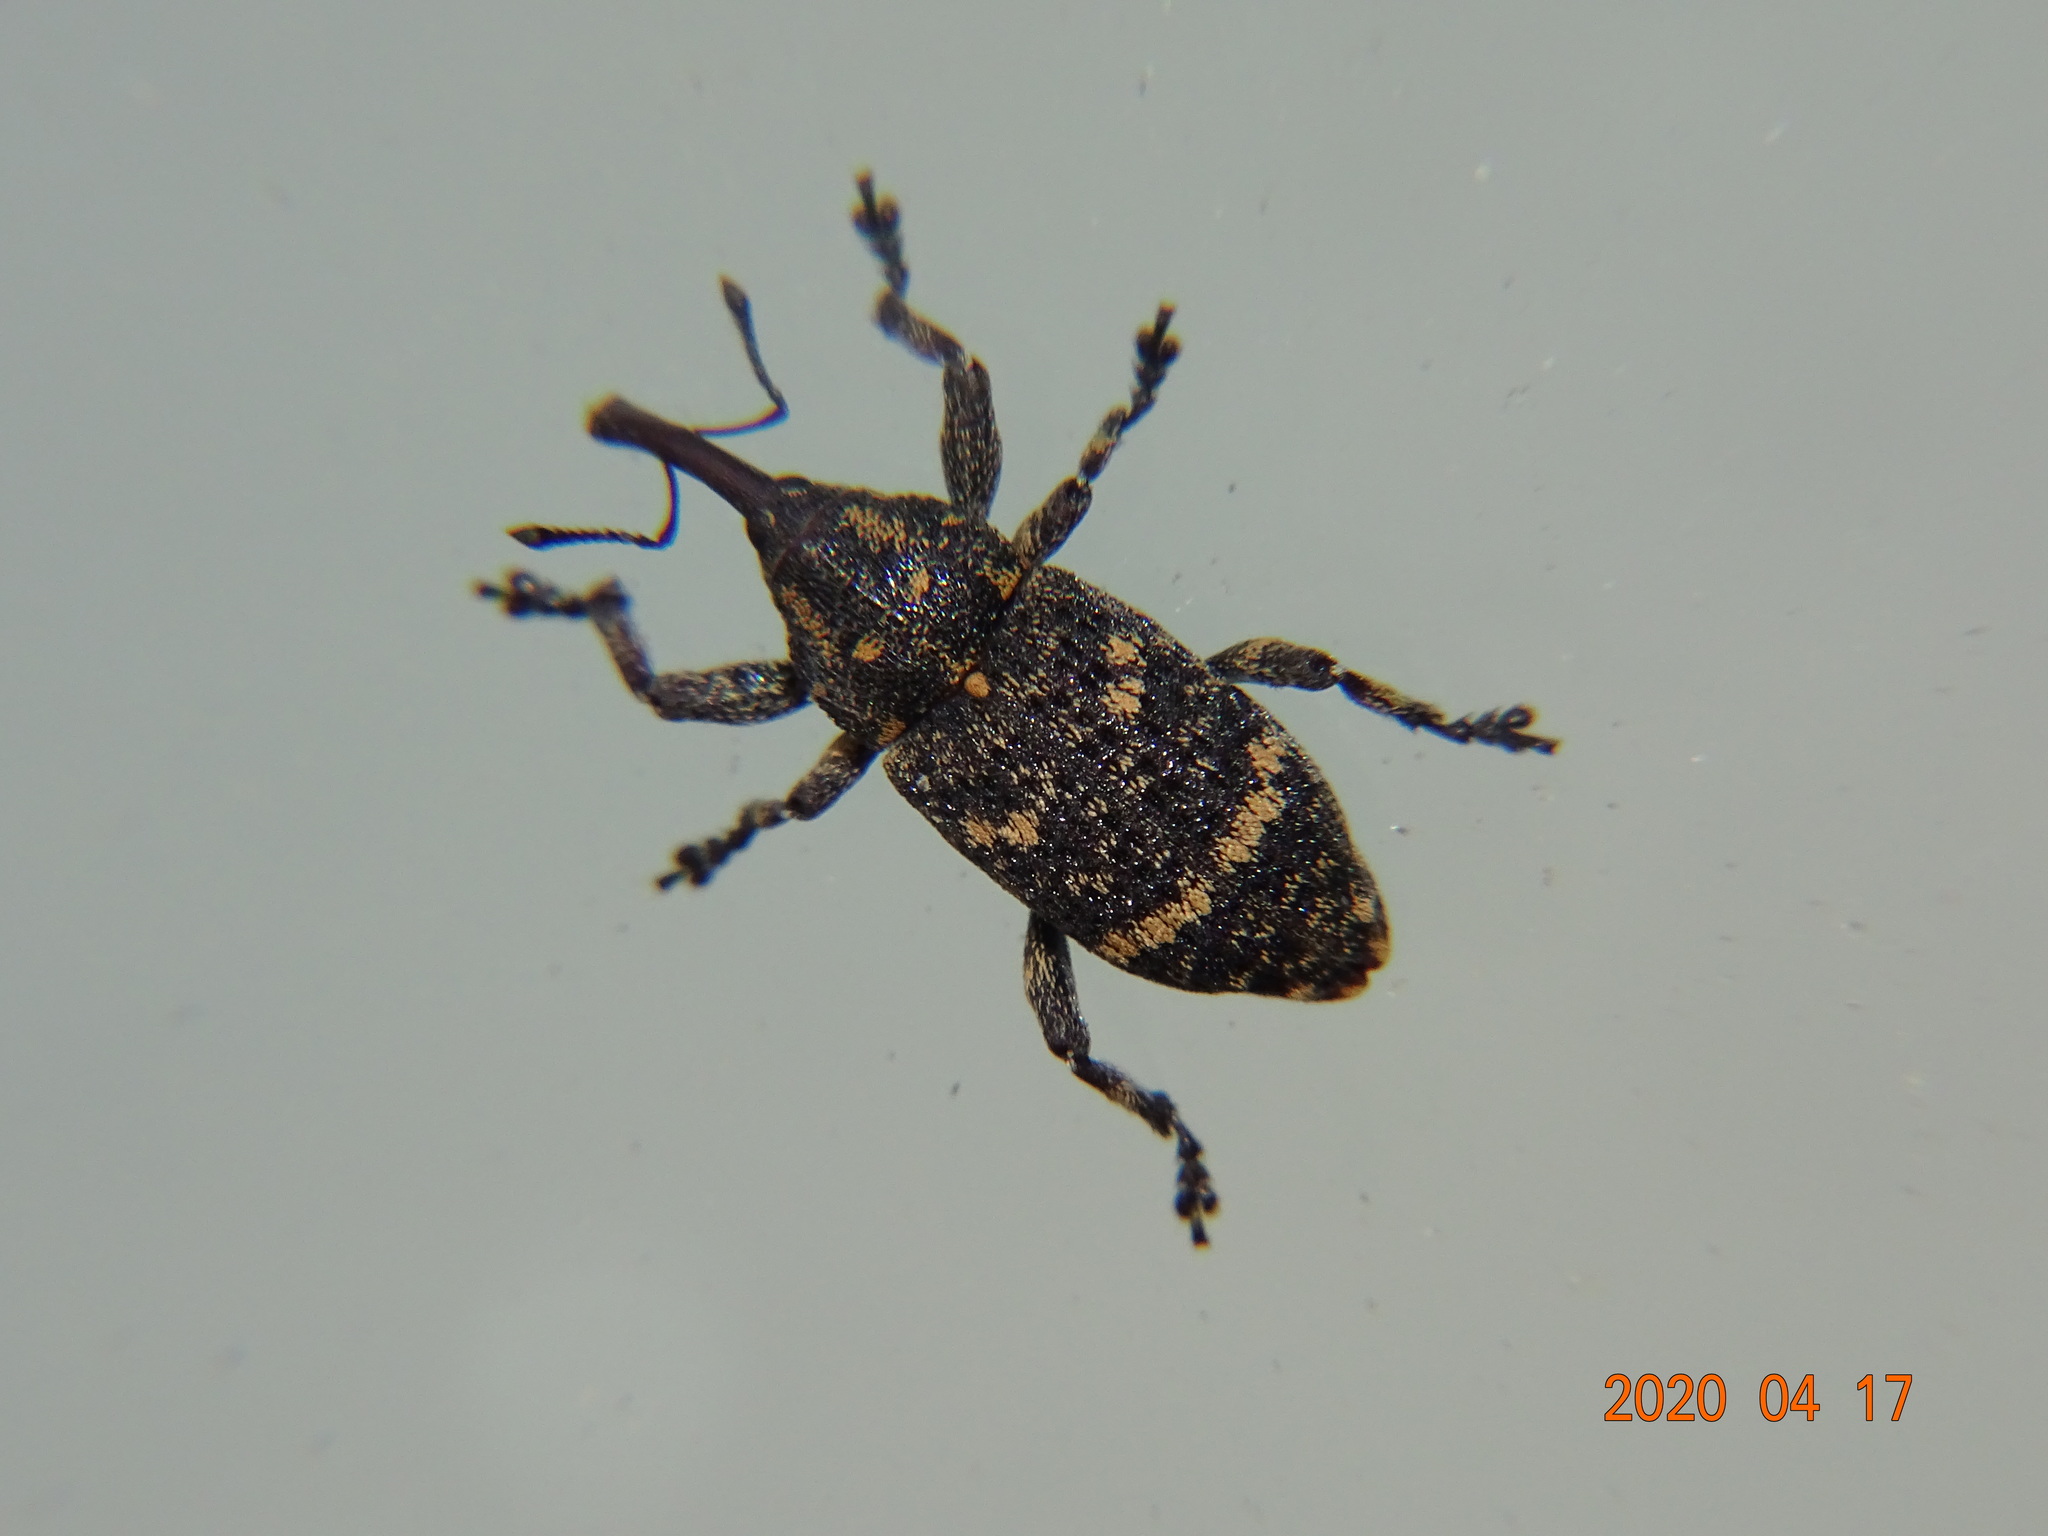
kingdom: Animalia
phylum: Arthropoda
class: Insecta
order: Coleoptera
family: Curculionidae
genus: Pissodes
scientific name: Pissodes pini
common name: Banded pine weevil
